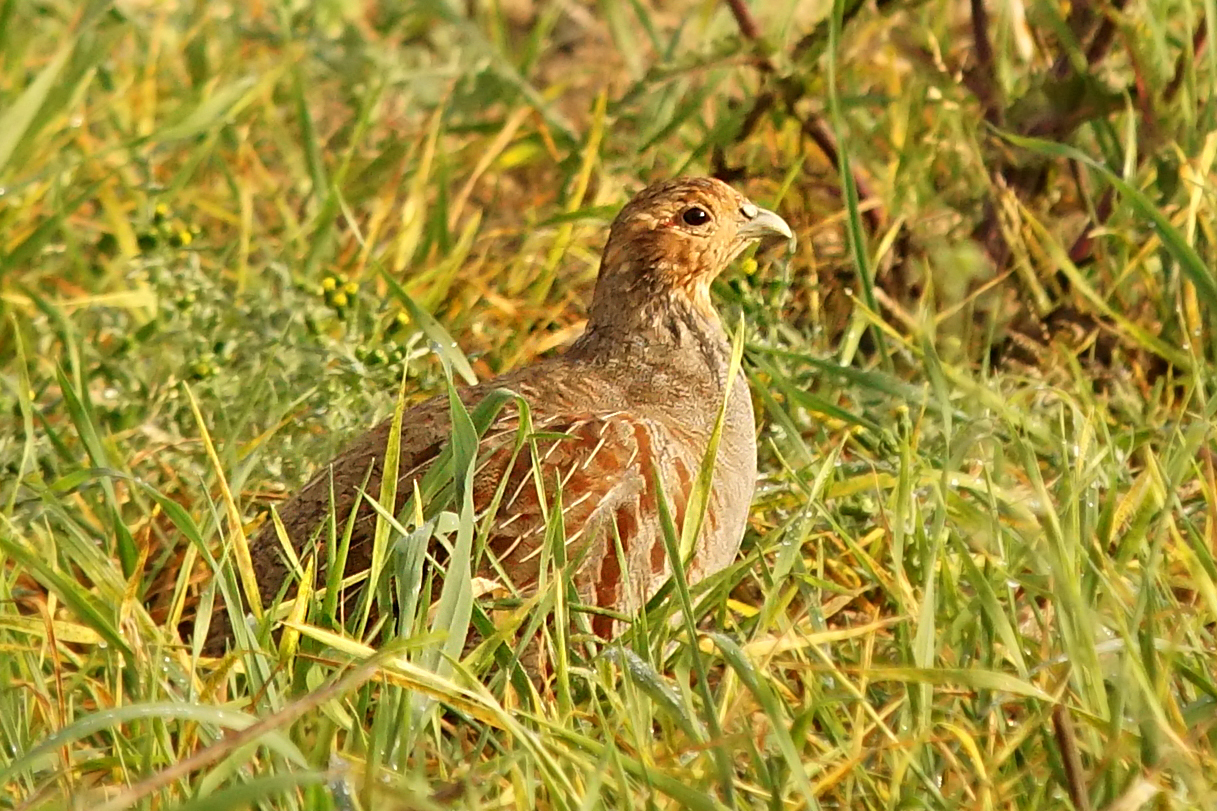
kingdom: Animalia
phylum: Chordata
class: Aves
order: Galliformes
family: Phasianidae
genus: Perdix
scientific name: Perdix perdix
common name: Grey partridge
